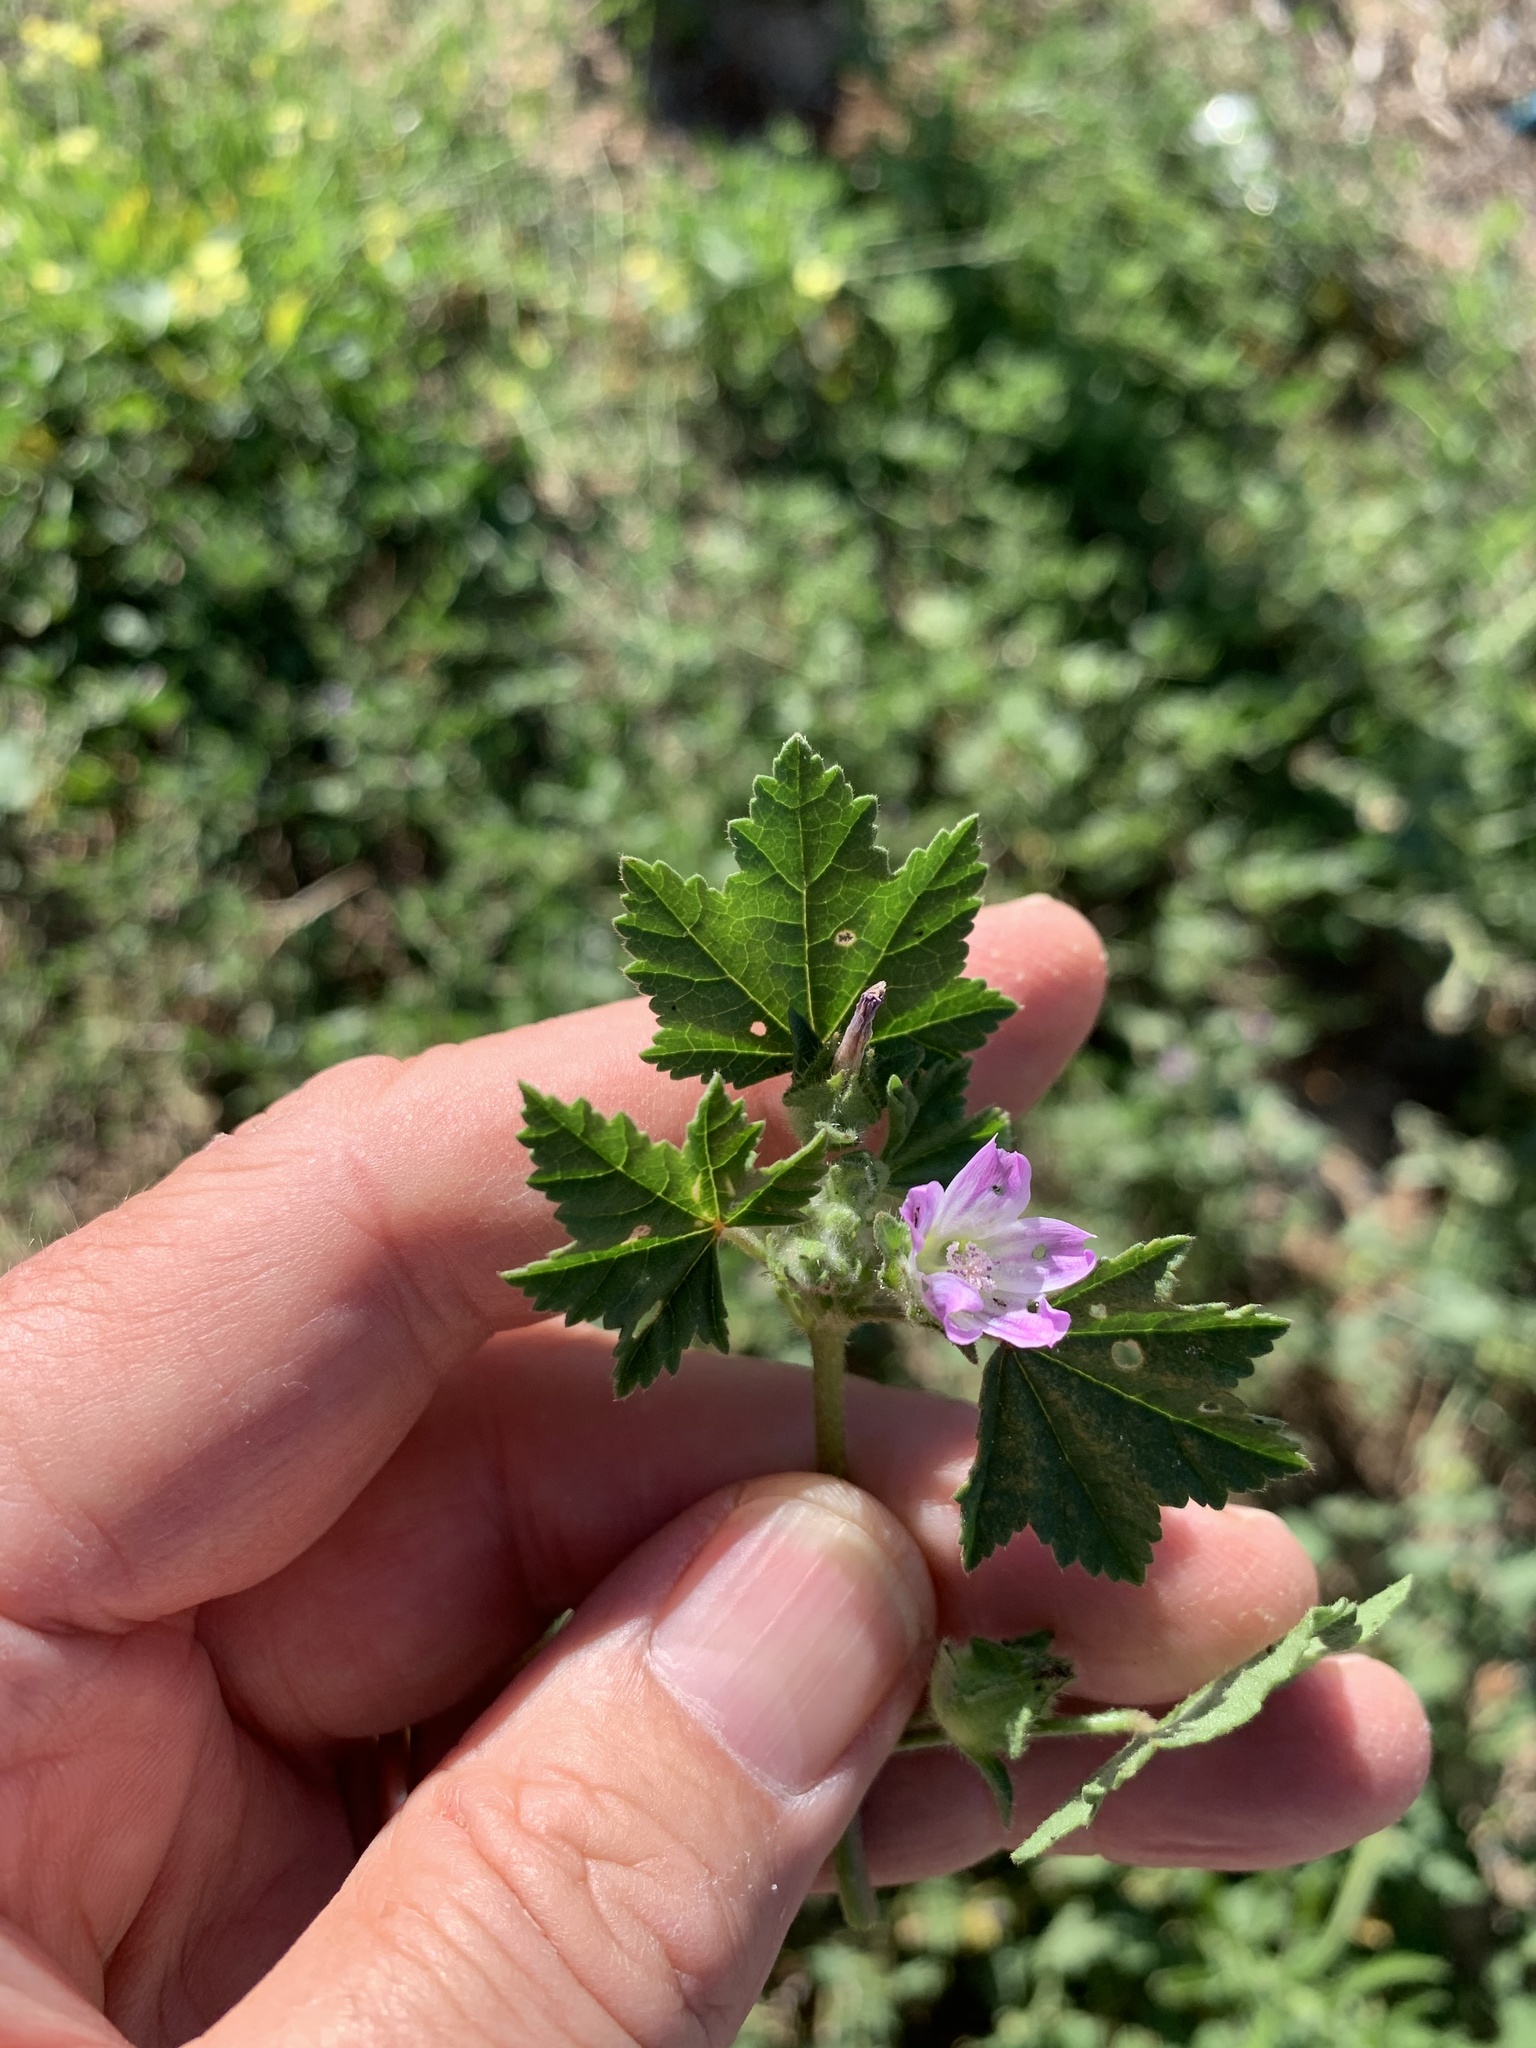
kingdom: Plantae
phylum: Tracheophyta
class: Magnoliopsida
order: Malvales
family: Malvaceae
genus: Malva
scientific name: Malva multiflora
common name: Cheeseweed
